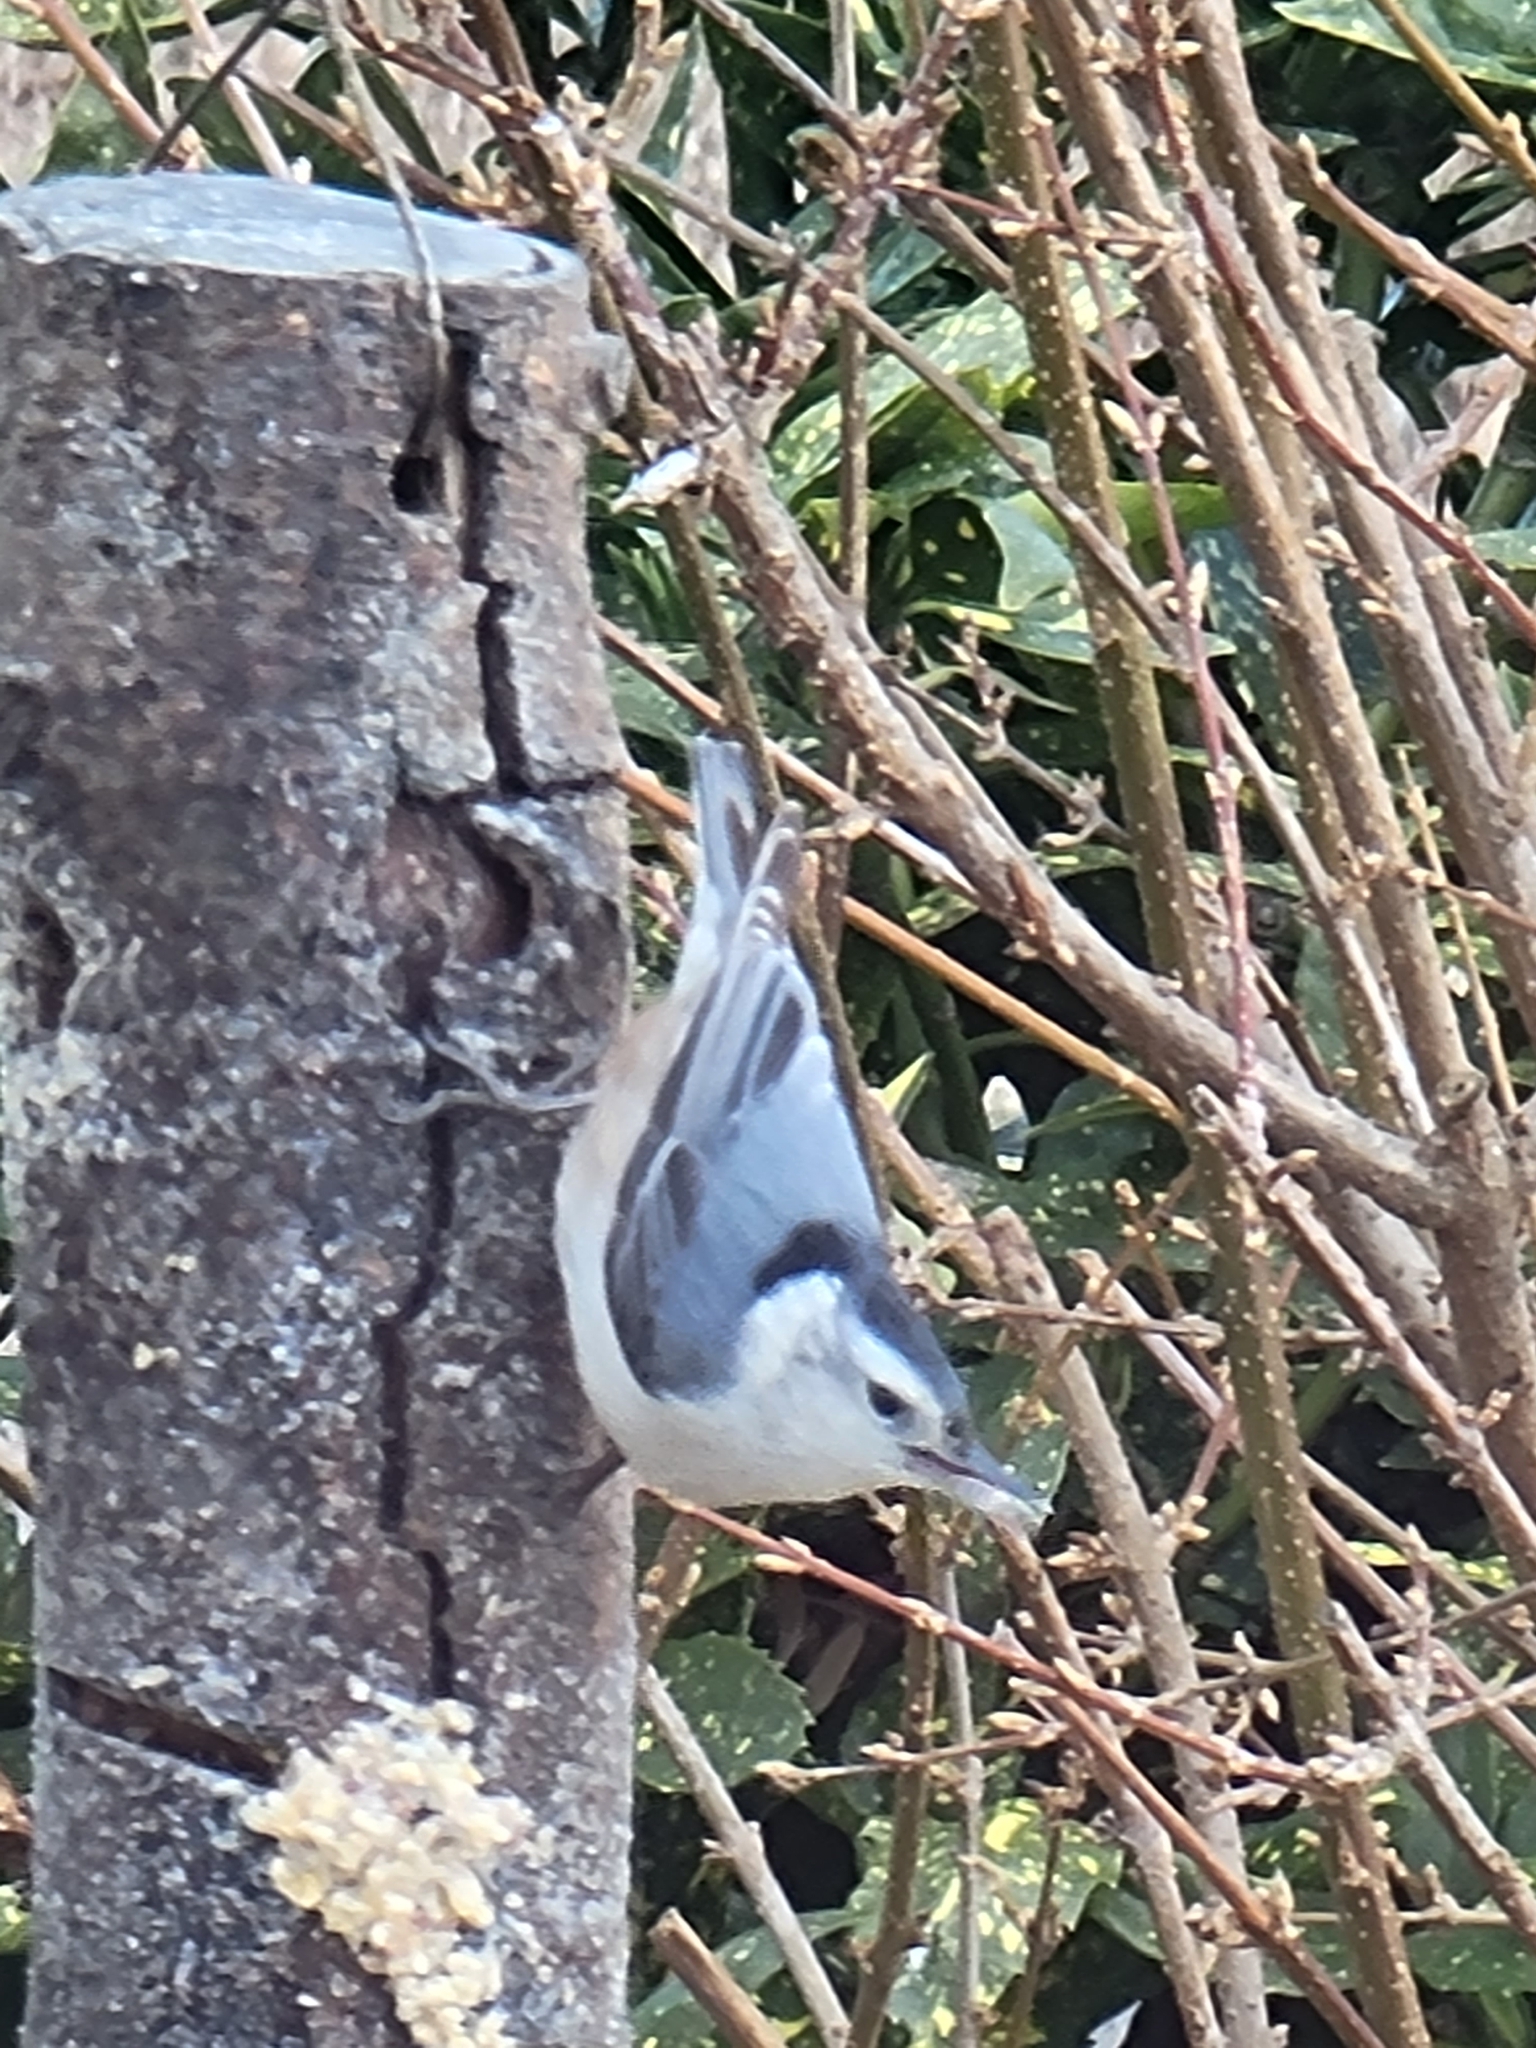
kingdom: Animalia
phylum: Chordata
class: Aves
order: Passeriformes
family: Sittidae
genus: Sitta
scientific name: Sitta carolinensis
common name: White-breasted nuthatch
